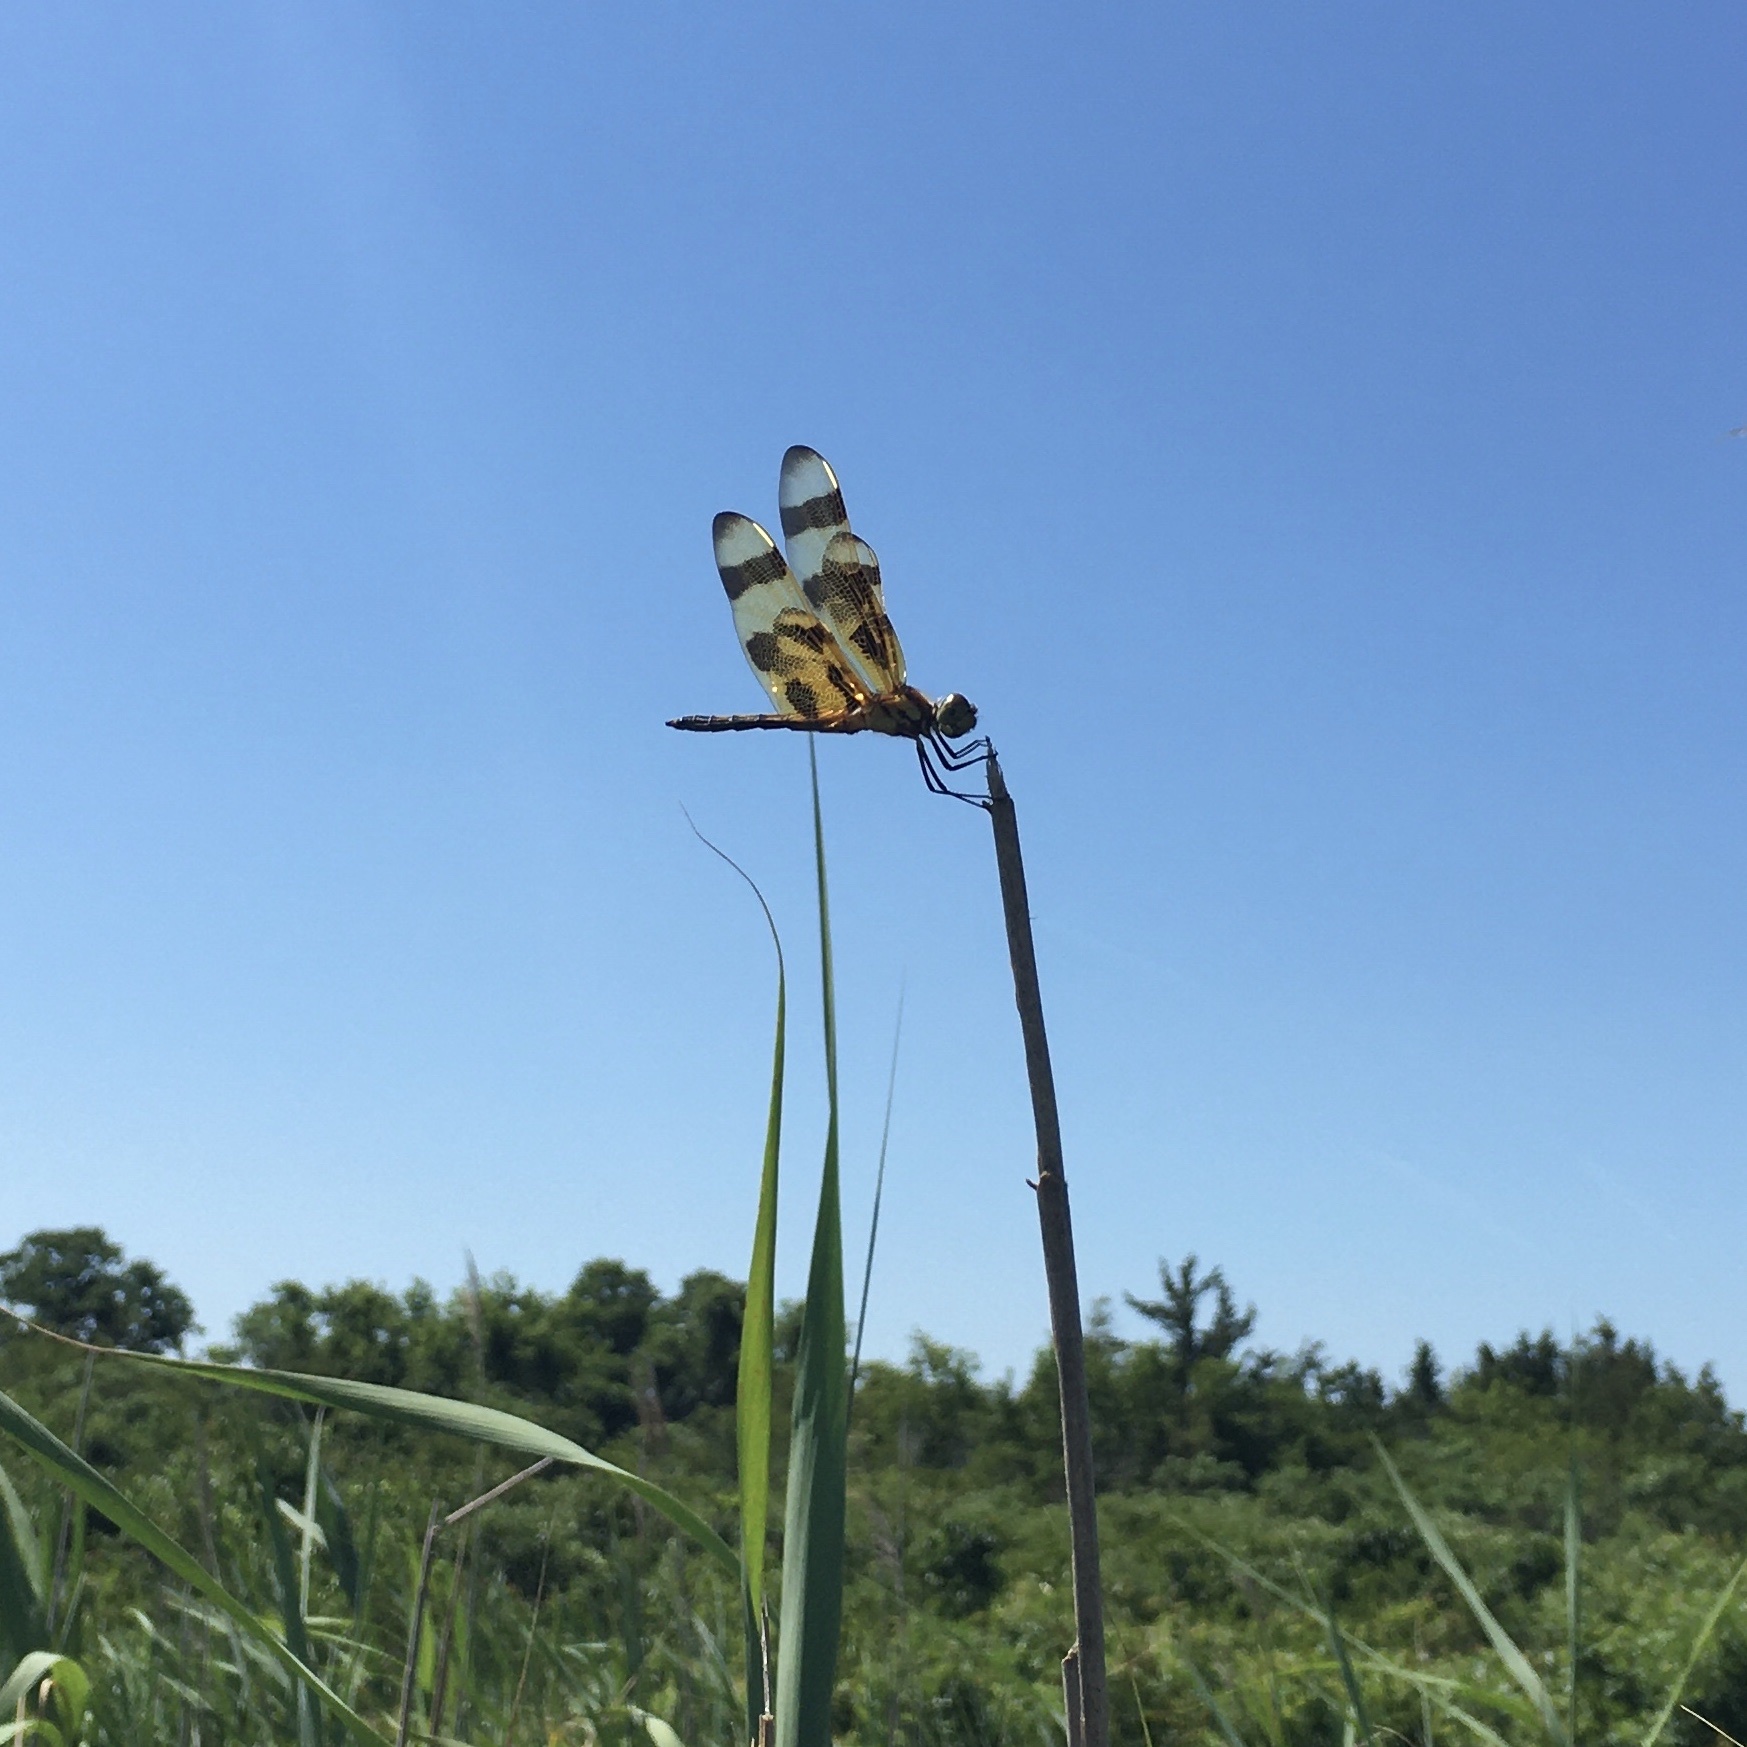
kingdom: Animalia
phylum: Arthropoda
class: Insecta
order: Odonata
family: Libellulidae
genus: Celithemis
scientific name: Celithemis eponina
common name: Halloween pennant
